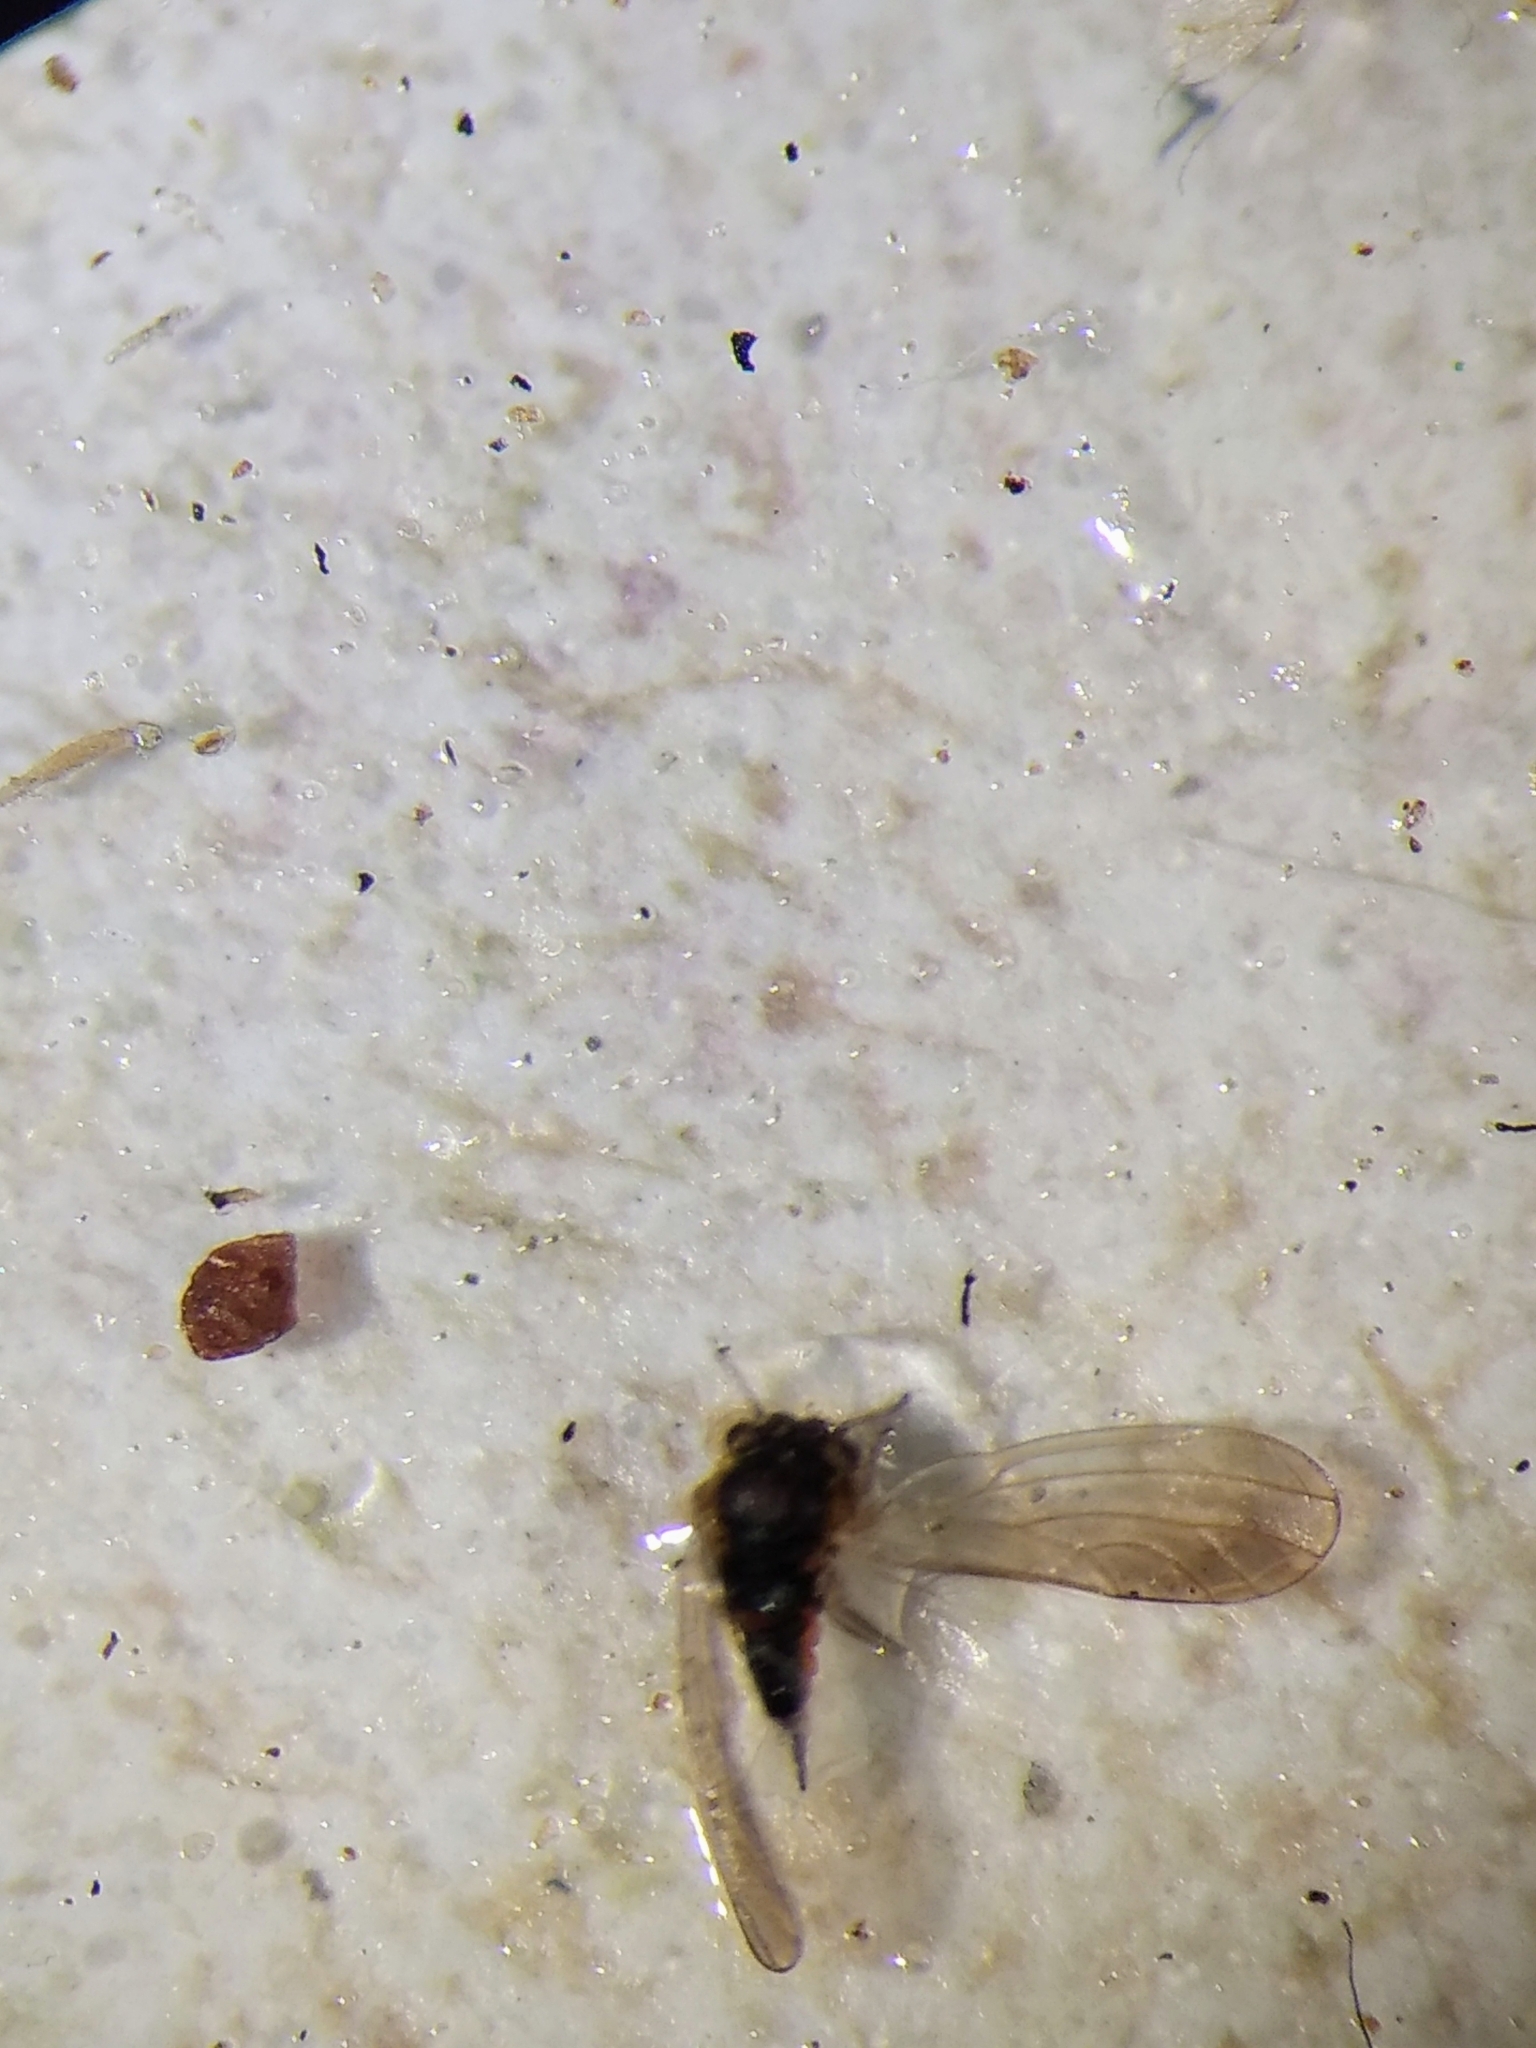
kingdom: Animalia
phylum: Arthropoda
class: Insecta
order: Hemiptera
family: Aphalaridae
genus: Blastopsylla
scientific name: Blastopsylla occidentalis
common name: Reg gum lerp psyllid
